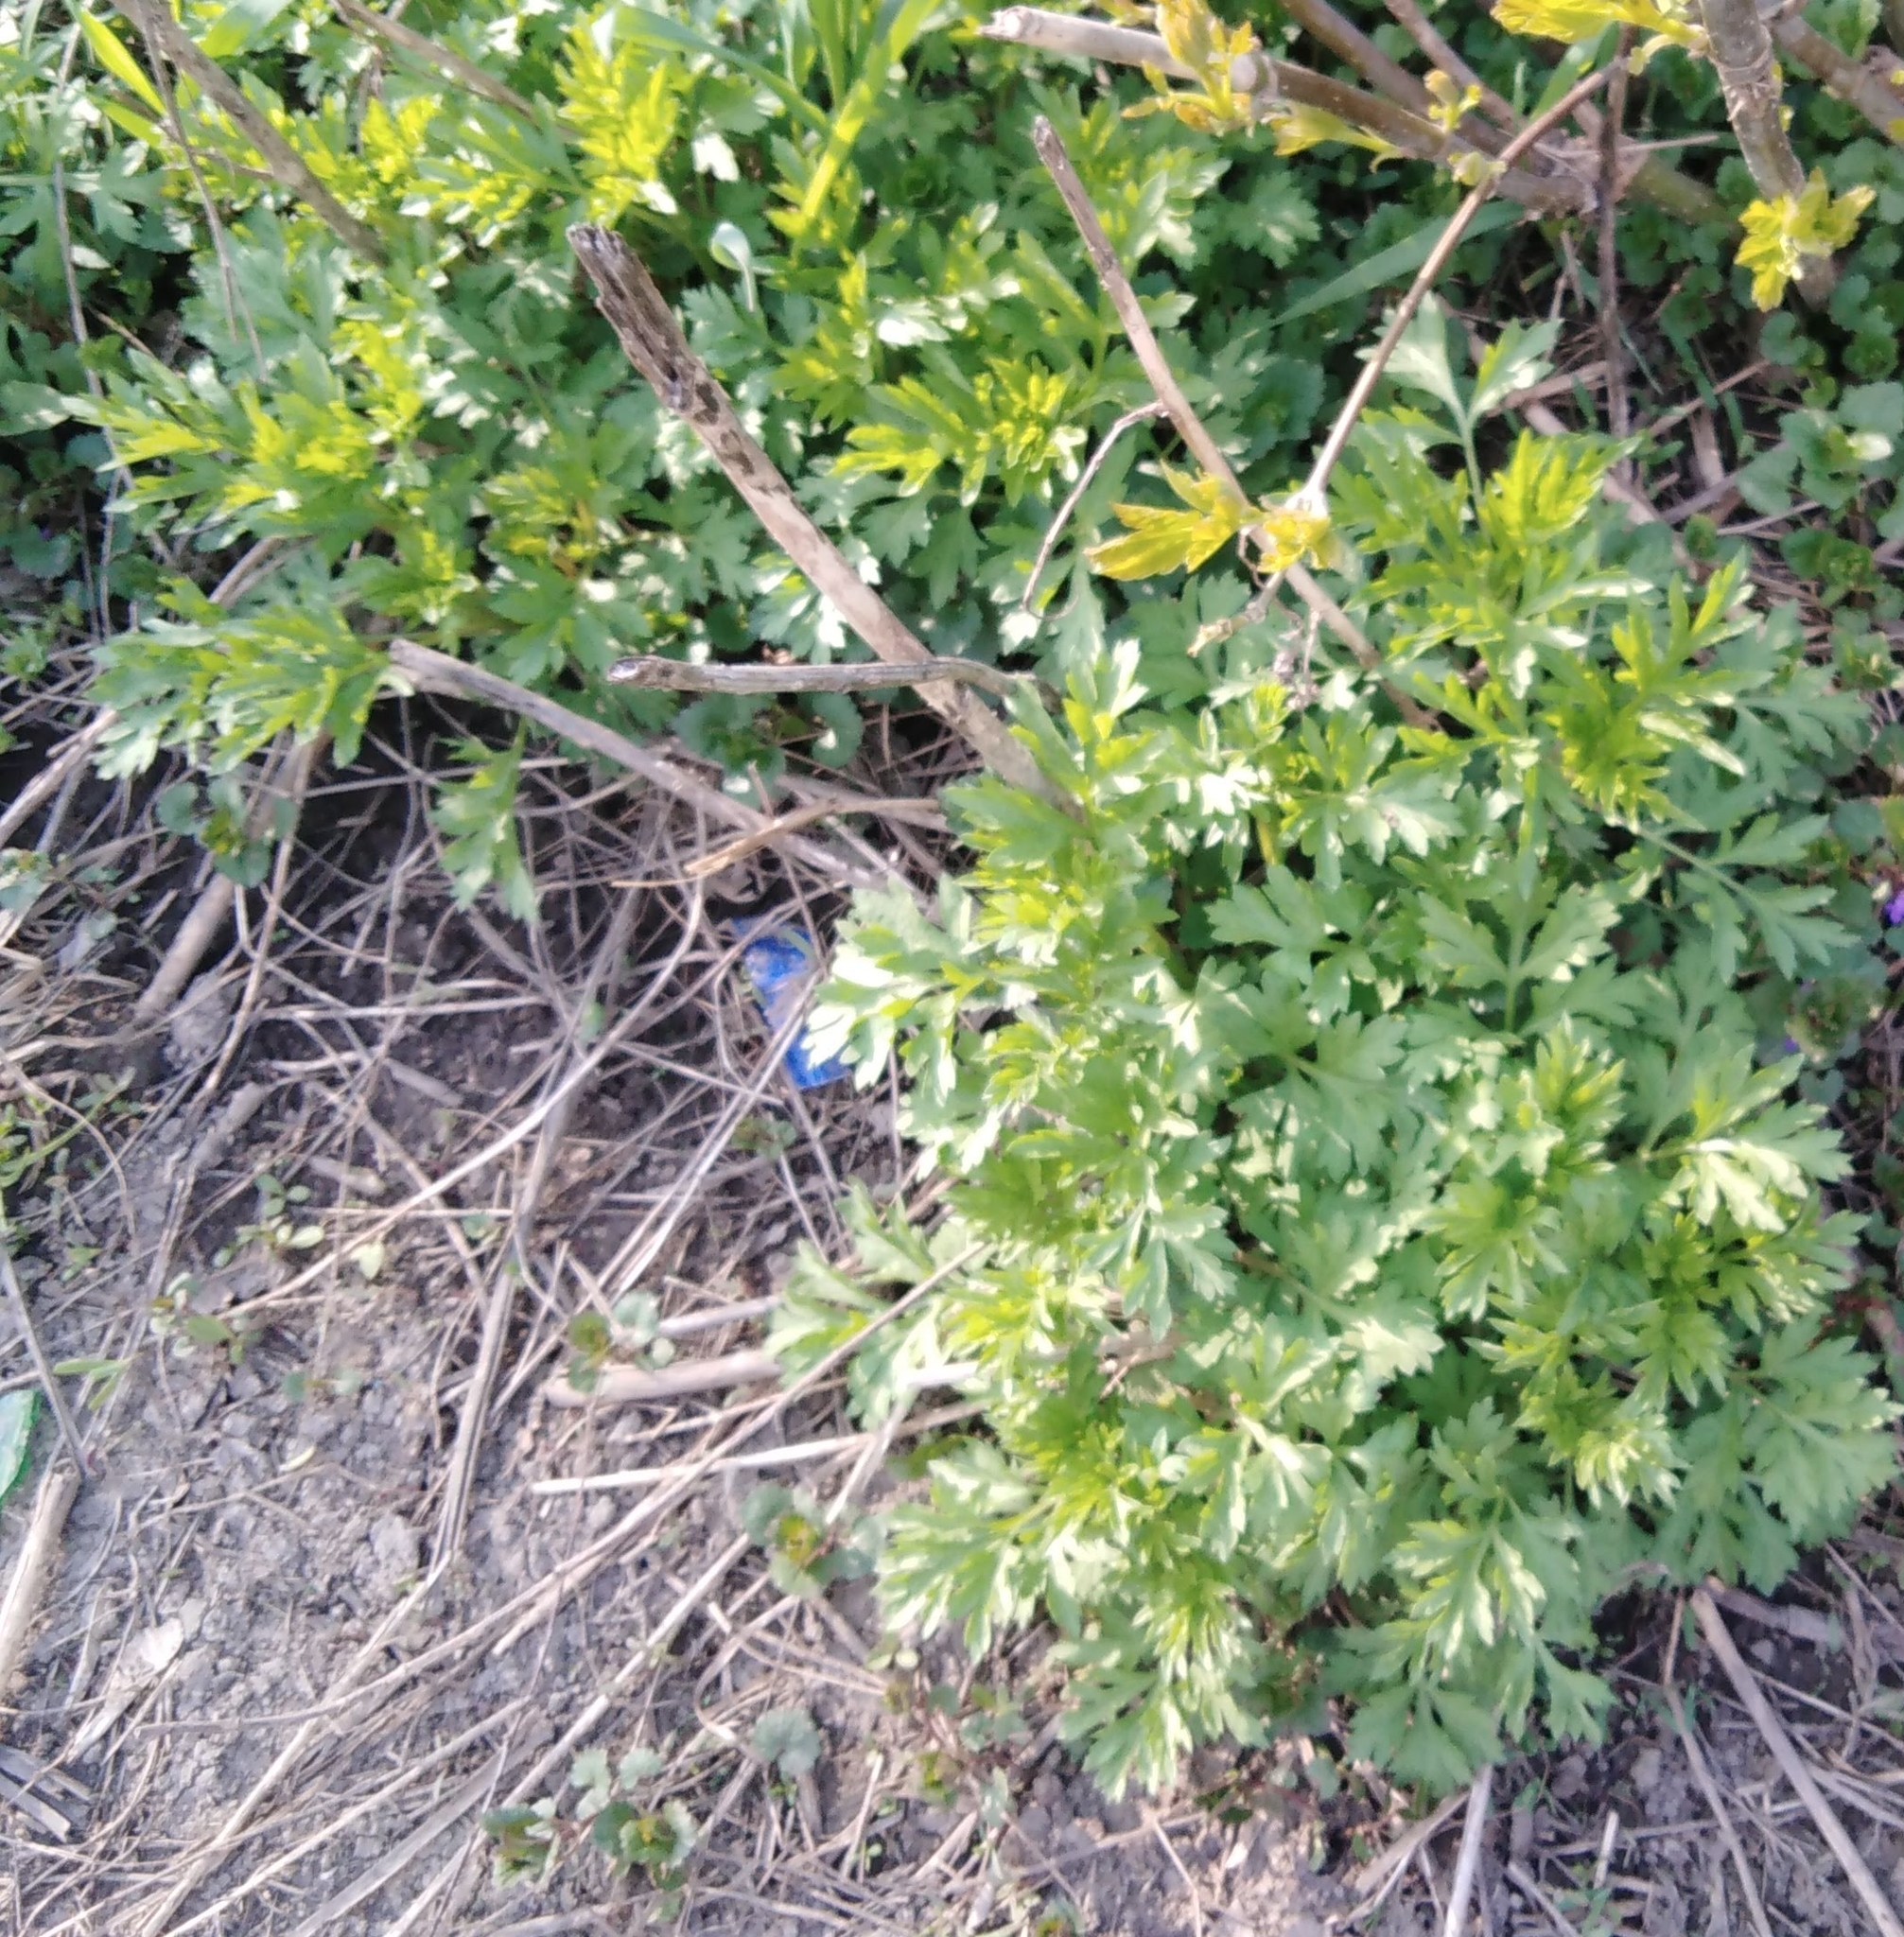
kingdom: Plantae
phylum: Tracheophyta
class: Magnoliopsida
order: Asterales
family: Asteraceae
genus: Artemisia
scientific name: Artemisia vulgaris
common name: Mugwort
